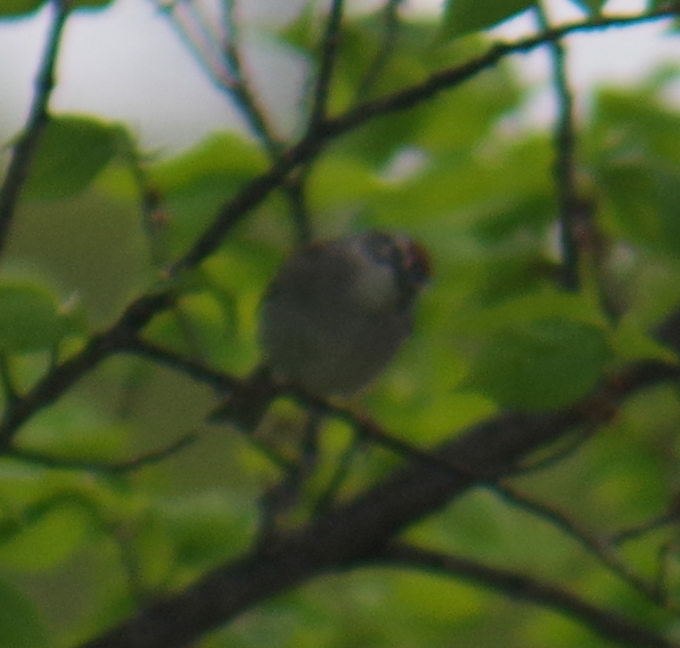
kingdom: Animalia
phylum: Chordata
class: Aves
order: Passeriformes
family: Passerellidae
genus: Spizella
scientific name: Spizella passerina
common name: Chipping sparrow
